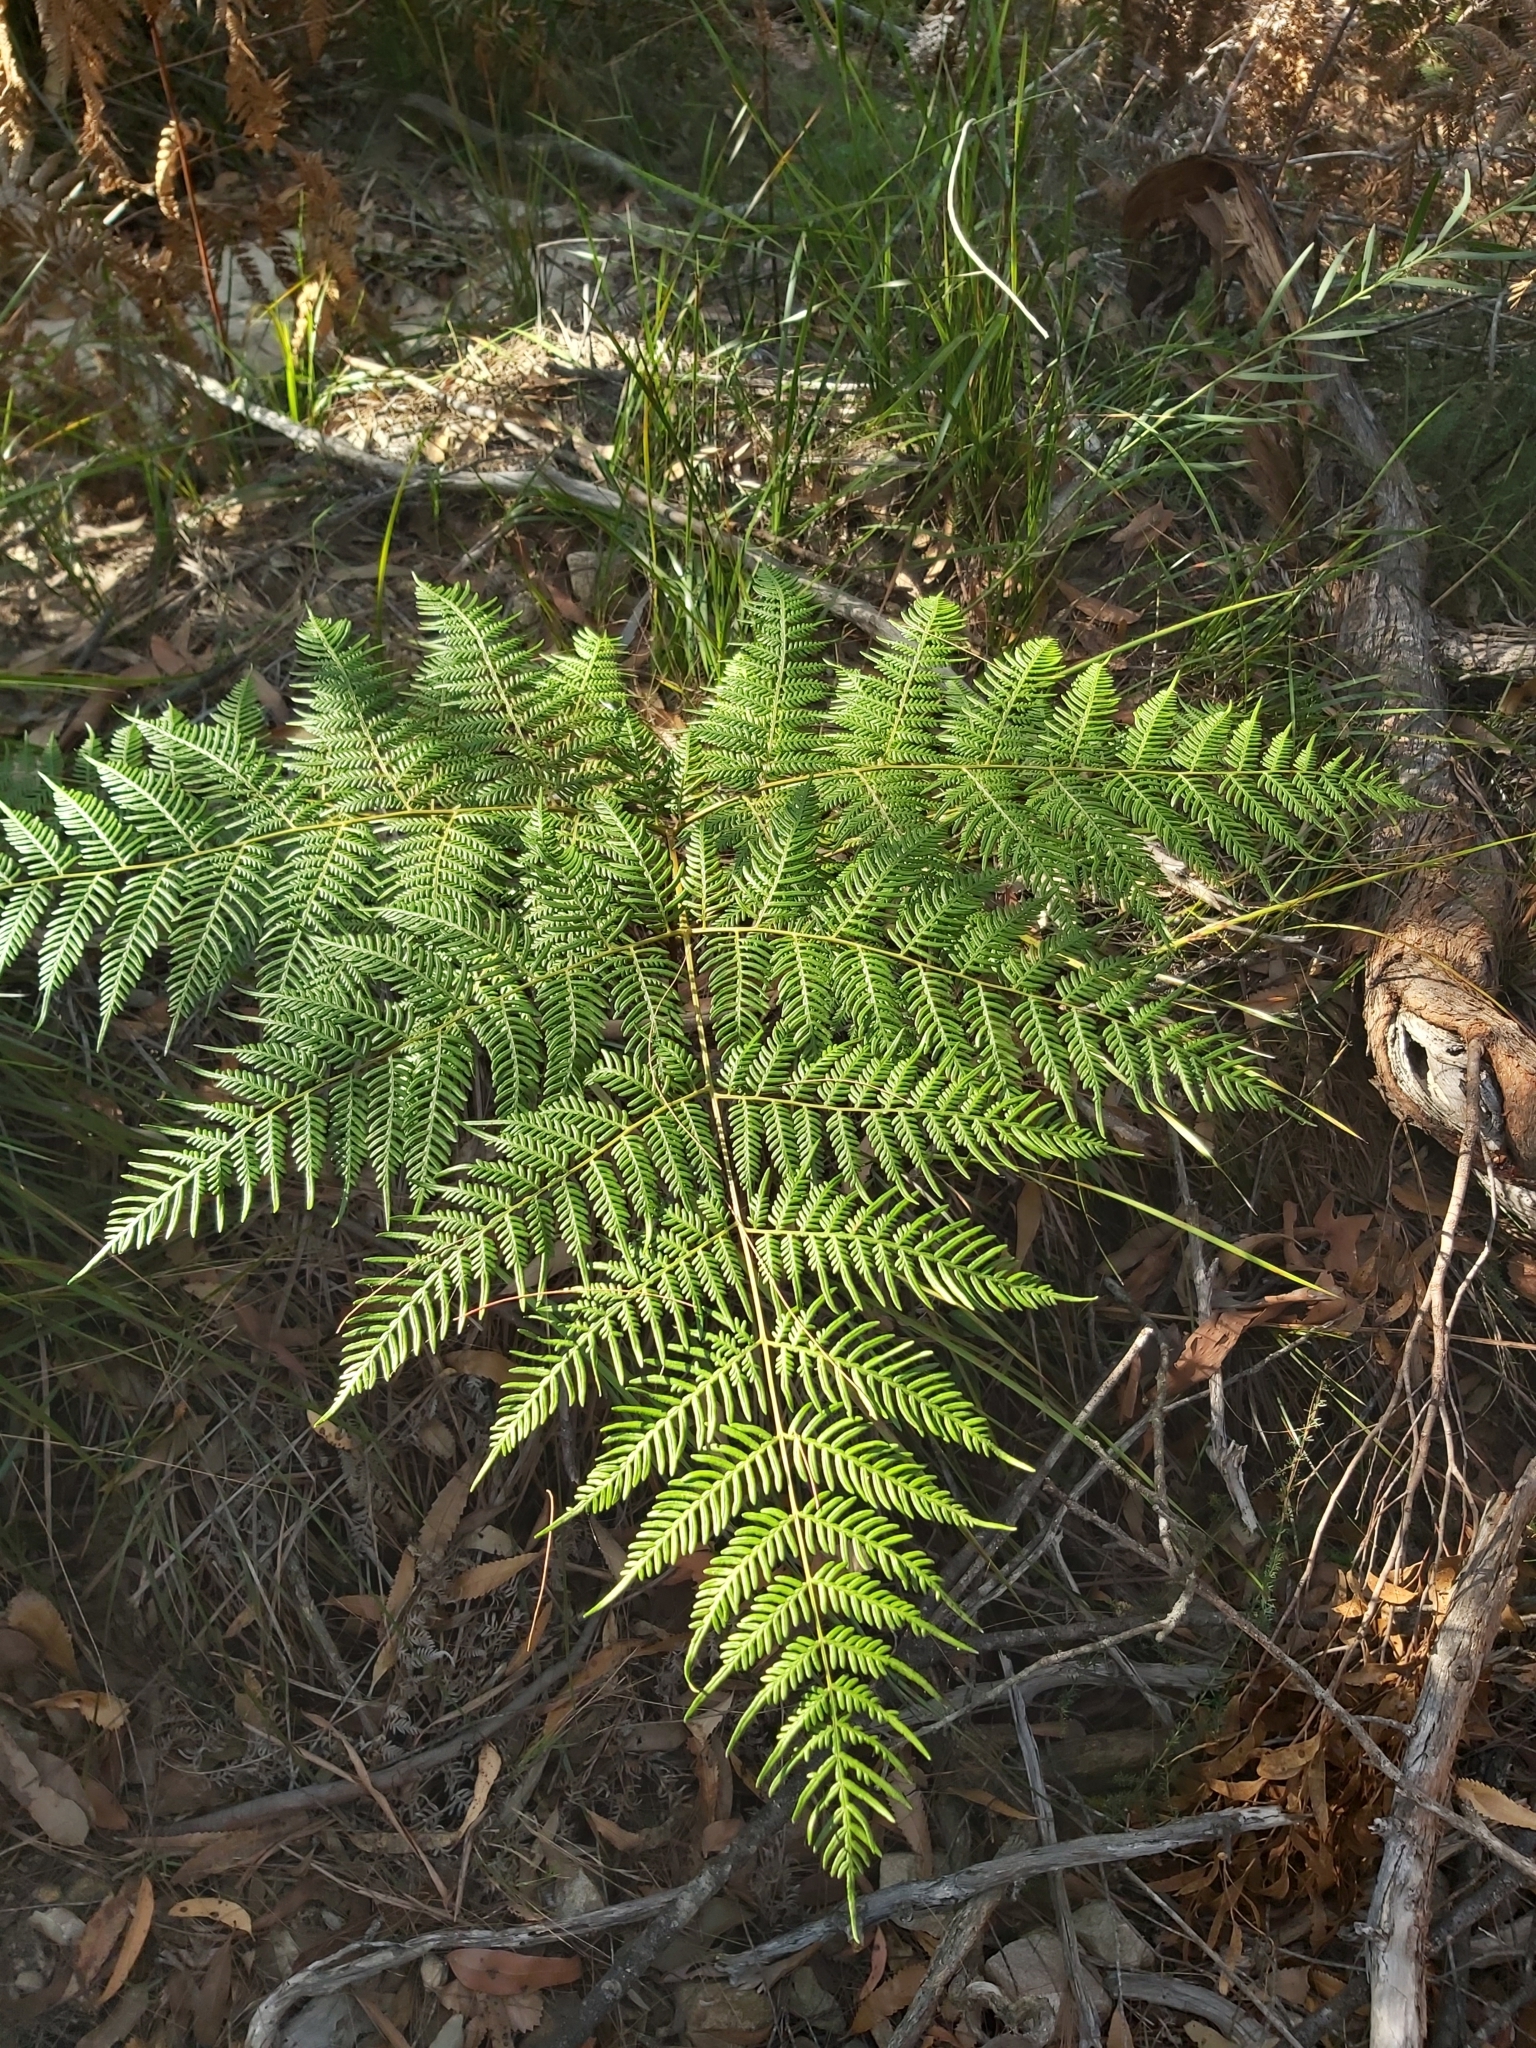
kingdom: Plantae
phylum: Tracheophyta
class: Polypodiopsida
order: Polypodiales
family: Dennstaedtiaceae
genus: Pteridium
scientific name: Pteridium esculentum
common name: Bracken fern
